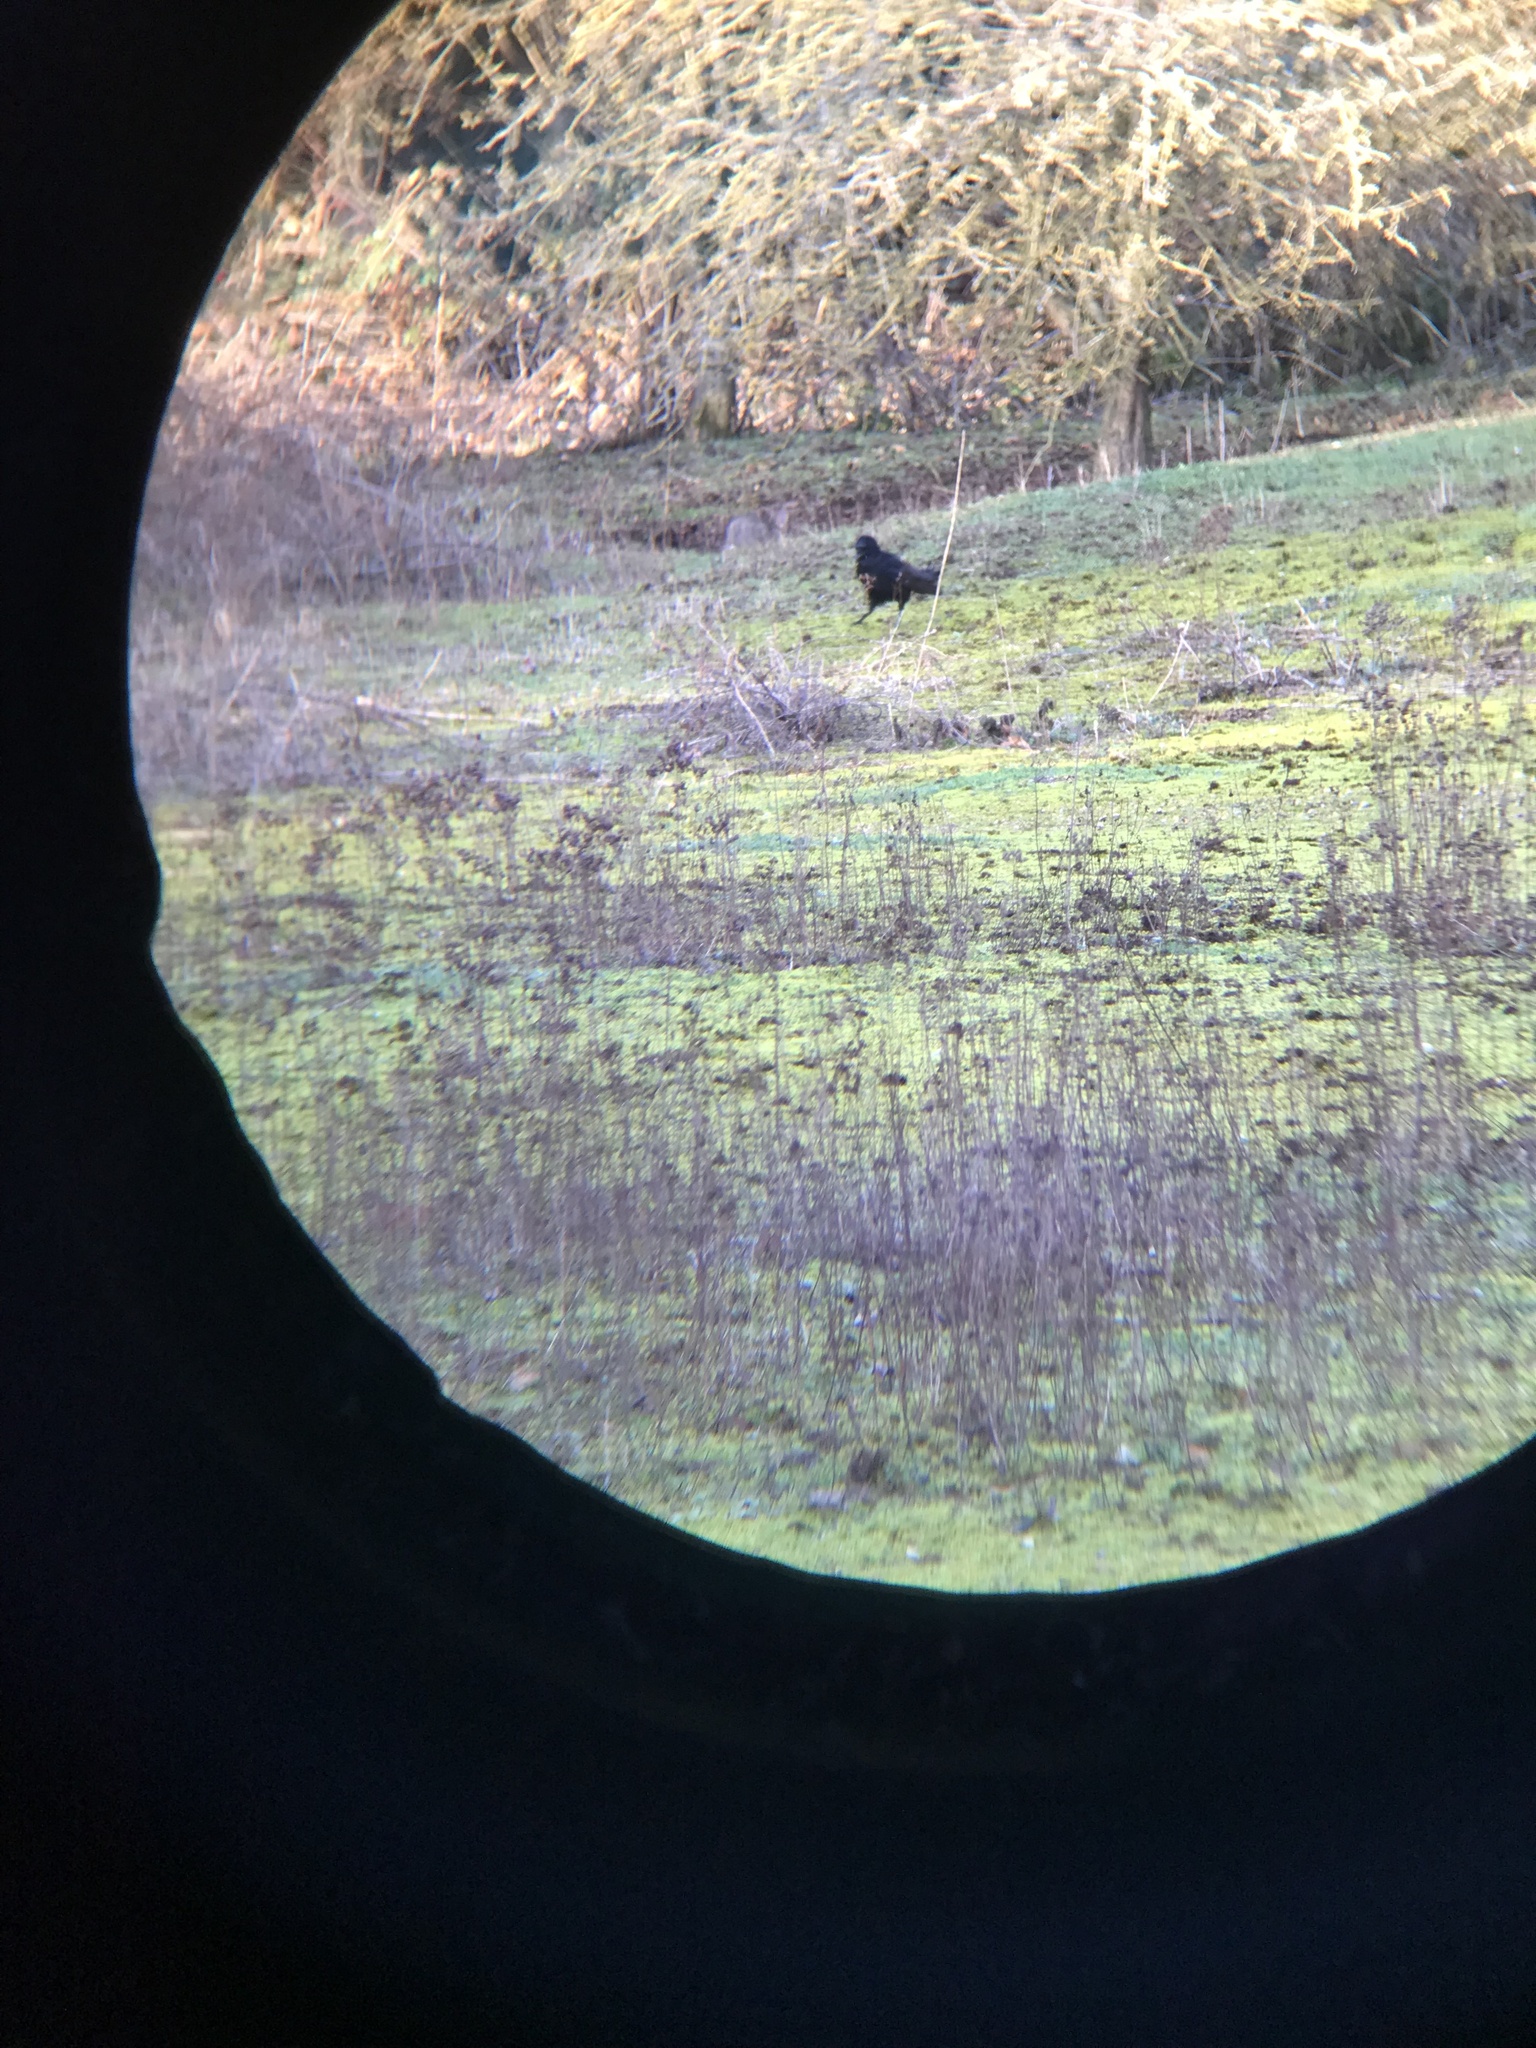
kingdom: Animalia
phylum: Chordata
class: Aves
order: Passeriformes
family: Corvidae
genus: Corvus
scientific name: Corvus corone
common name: Carrion crow
